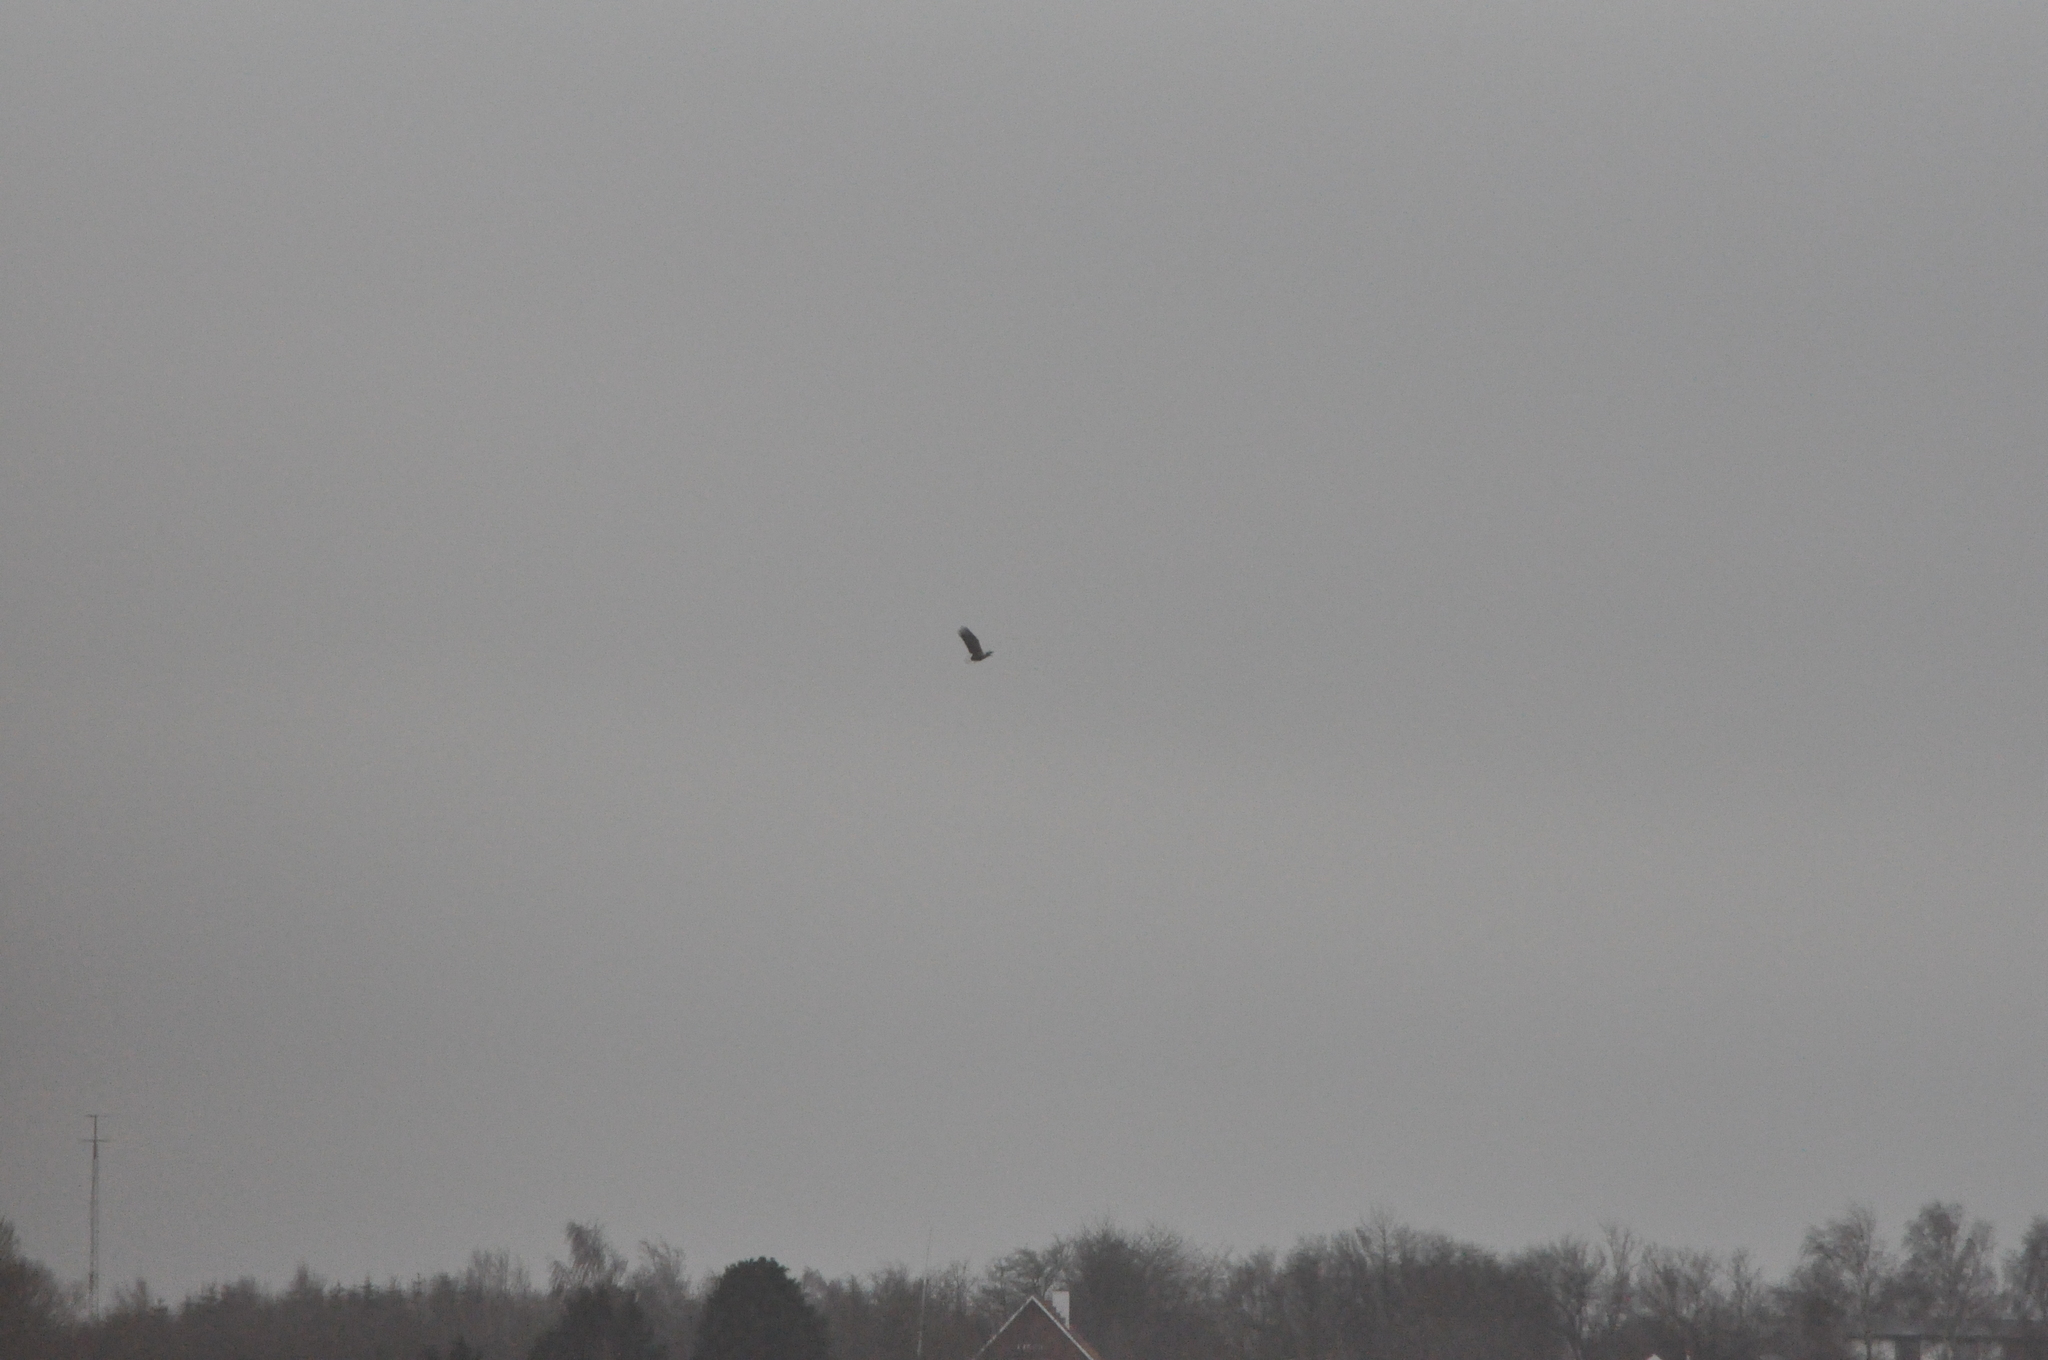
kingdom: Animalia
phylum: Chordata
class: Aves
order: Accipitriformes
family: Accipitridae
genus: Haliaeetus
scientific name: Haliaeetus albicilla
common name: White-tailed eagle
